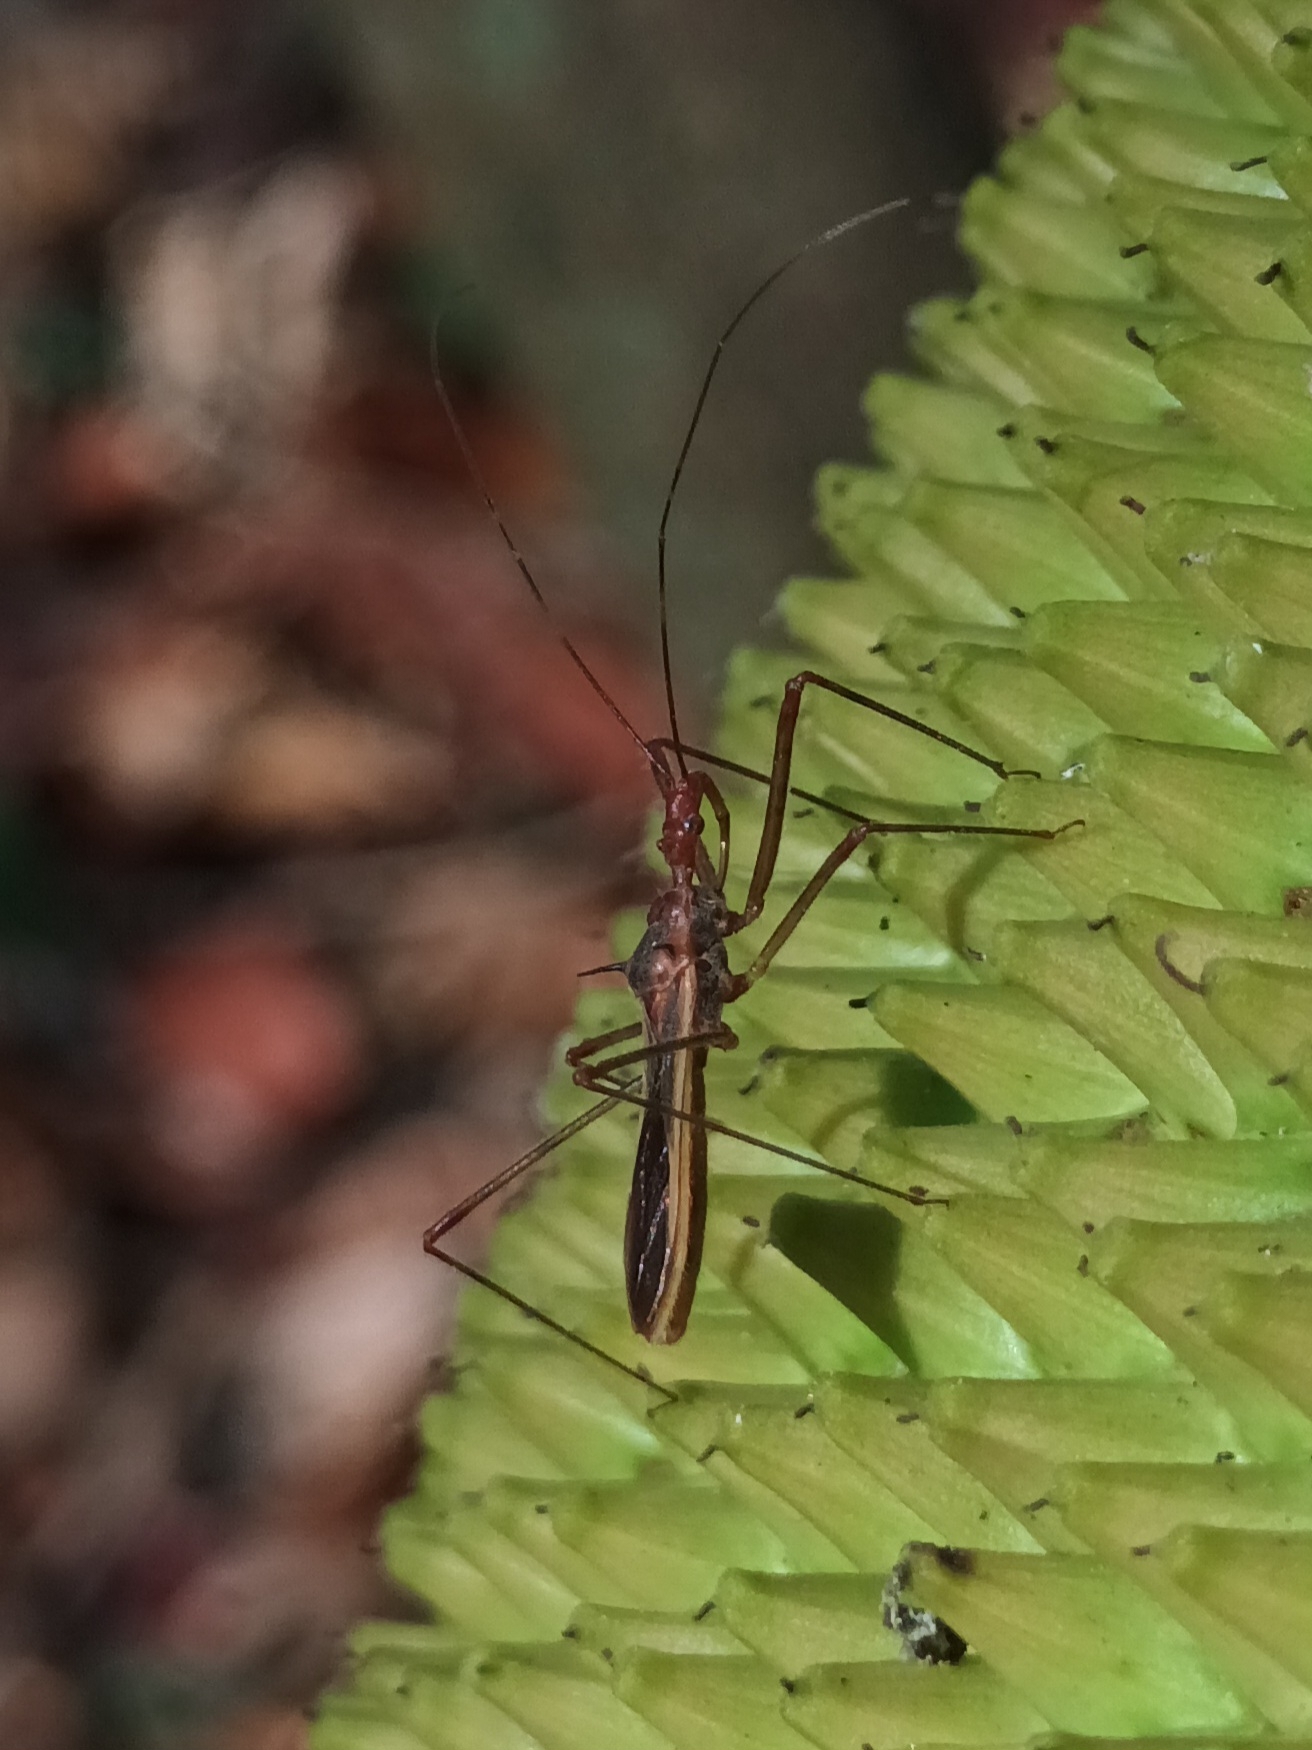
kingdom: Animalia
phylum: Arthropoda
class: Insecta
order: Hemiptera
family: Reduviidae
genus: Euagoras
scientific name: Euagoras plagiatus
